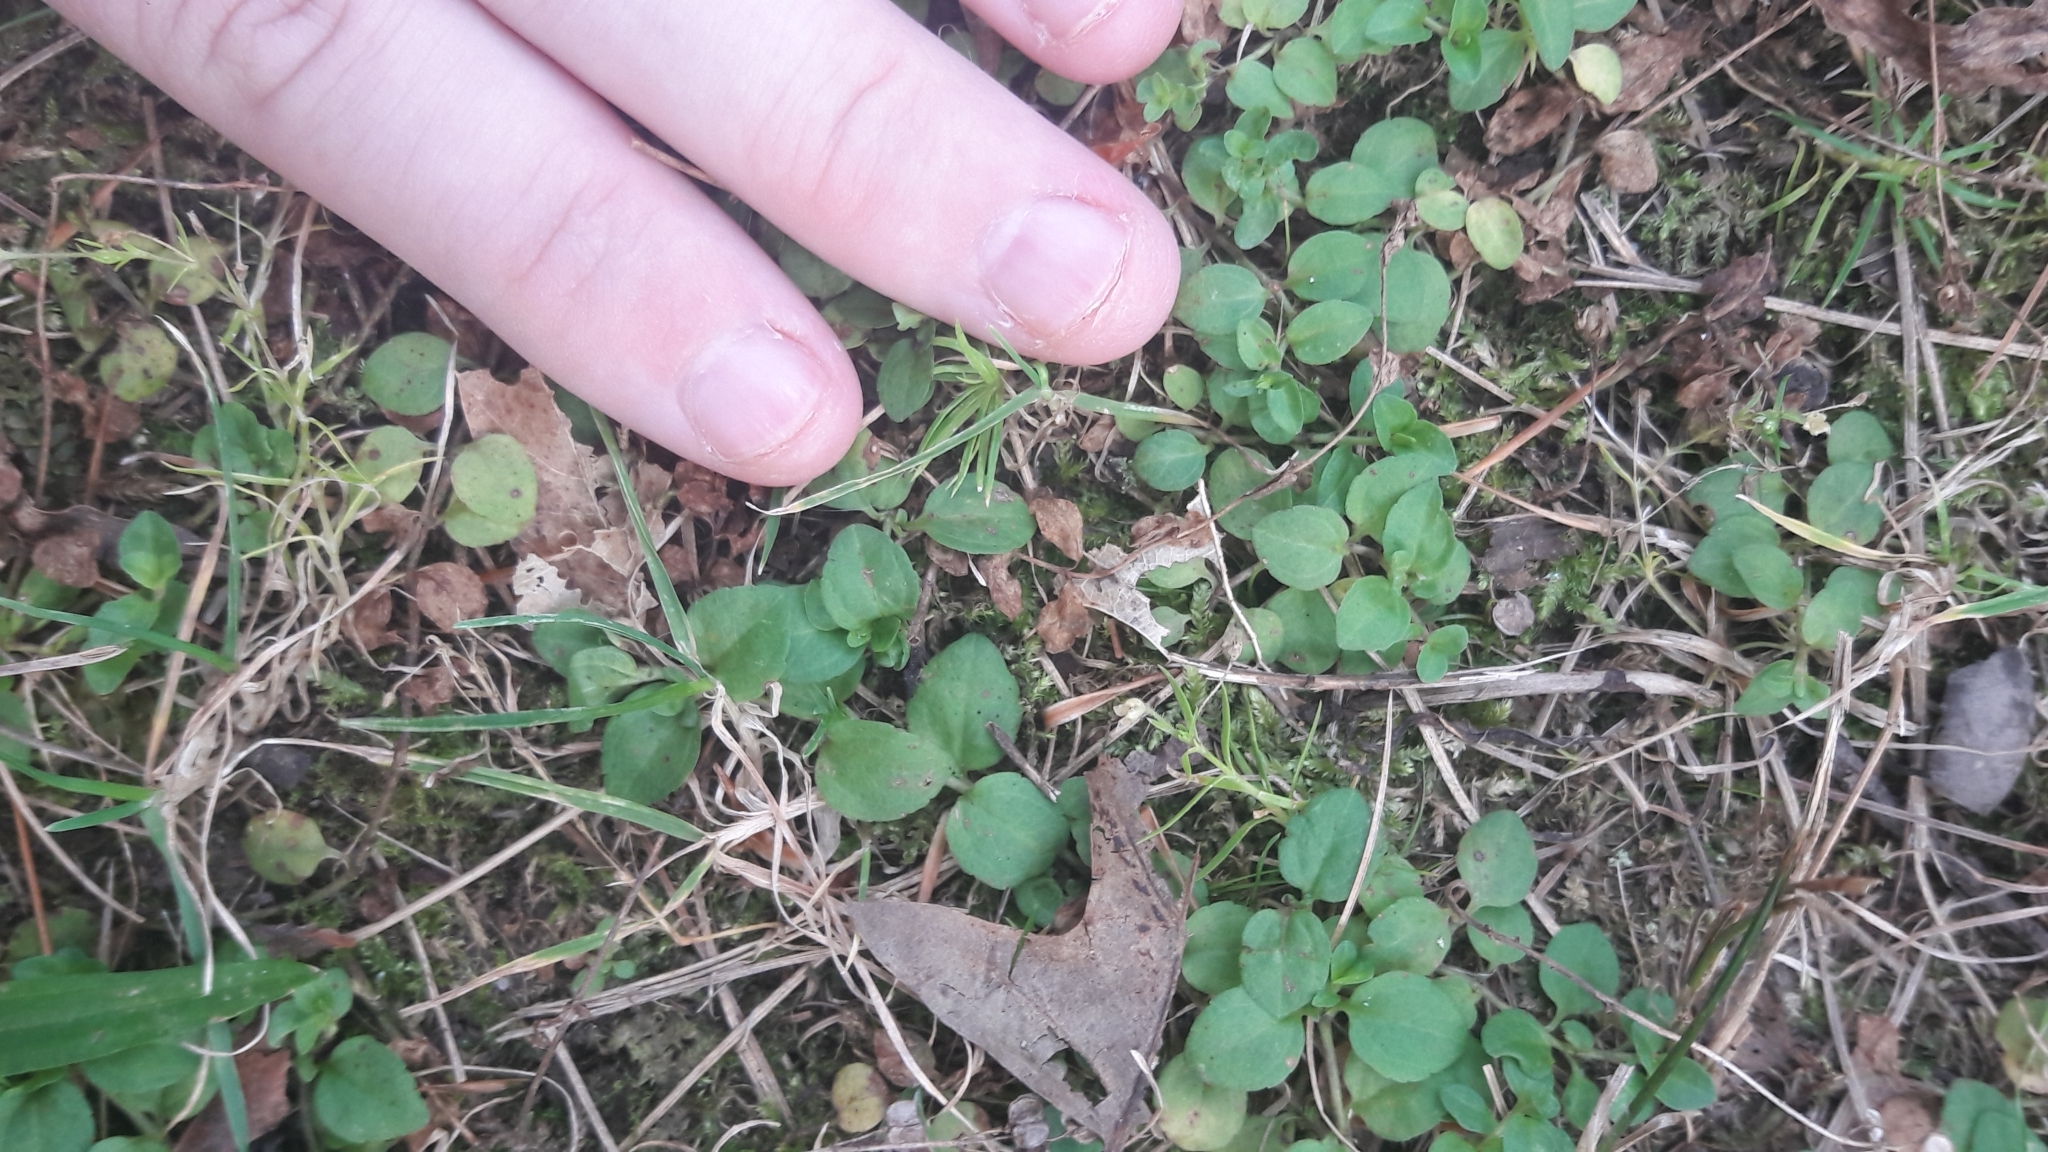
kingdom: Plantae
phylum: Tracheophyta
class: Magnoliopsida
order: Lamiales
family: Plantaginaceae
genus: Veronica
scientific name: Veronica serpyllifolia
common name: Thyme-leaved speedwell
